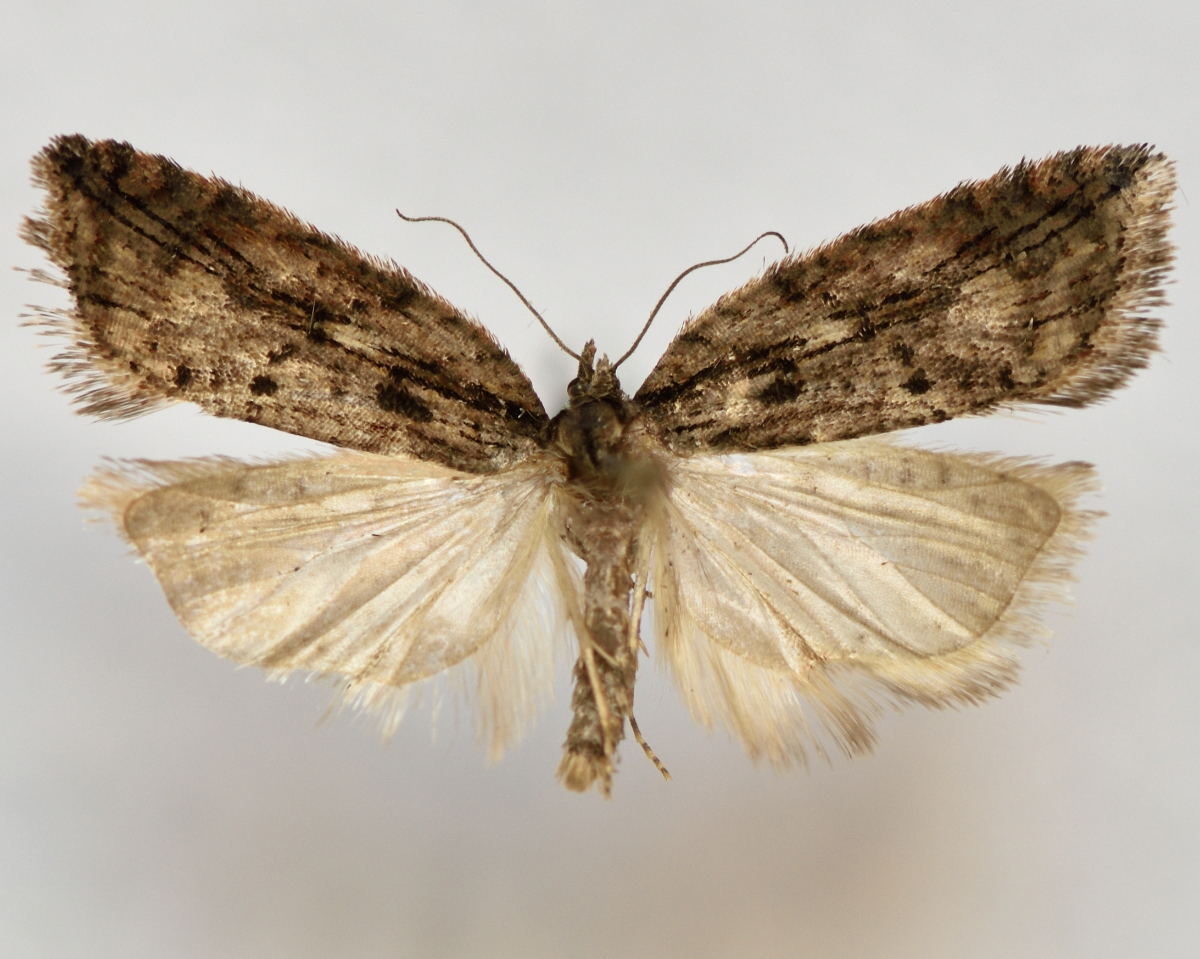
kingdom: Animalia
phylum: Arthropoda
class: Insecta
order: Lepidoptera
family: Tortricidae
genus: Acleris
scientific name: Acleris umbrana
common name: Dark-streaked button
